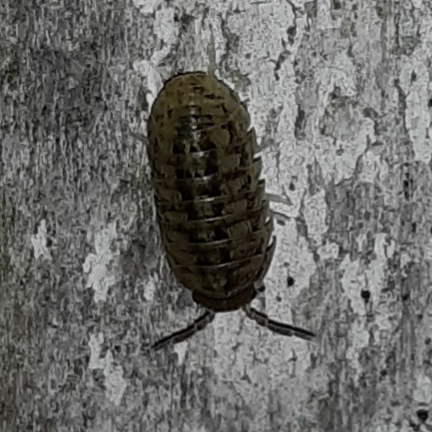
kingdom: Animalia
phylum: Arthropoda
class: Malacostraca
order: Isopoda
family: Armadillidiidae
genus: Armadillidium
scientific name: Armadillidium vulgare
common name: Common pill woodlouse
